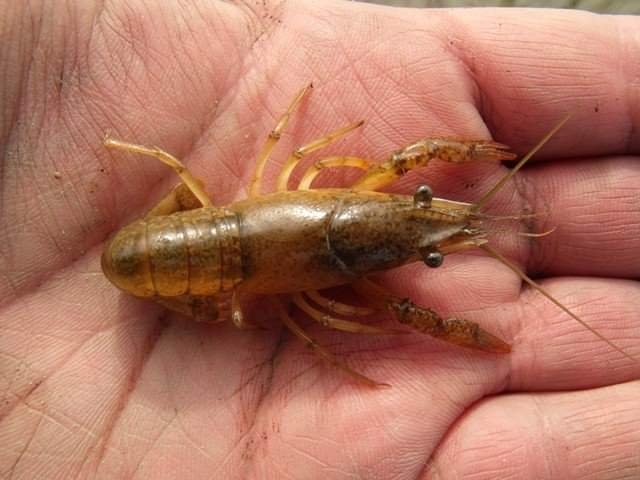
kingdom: Animalia
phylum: Arthropoda
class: Malacostraca
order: Decapoda
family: Cambaridae
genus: Procambarus
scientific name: Procambarus clarkii
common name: Red swamp crayfish
